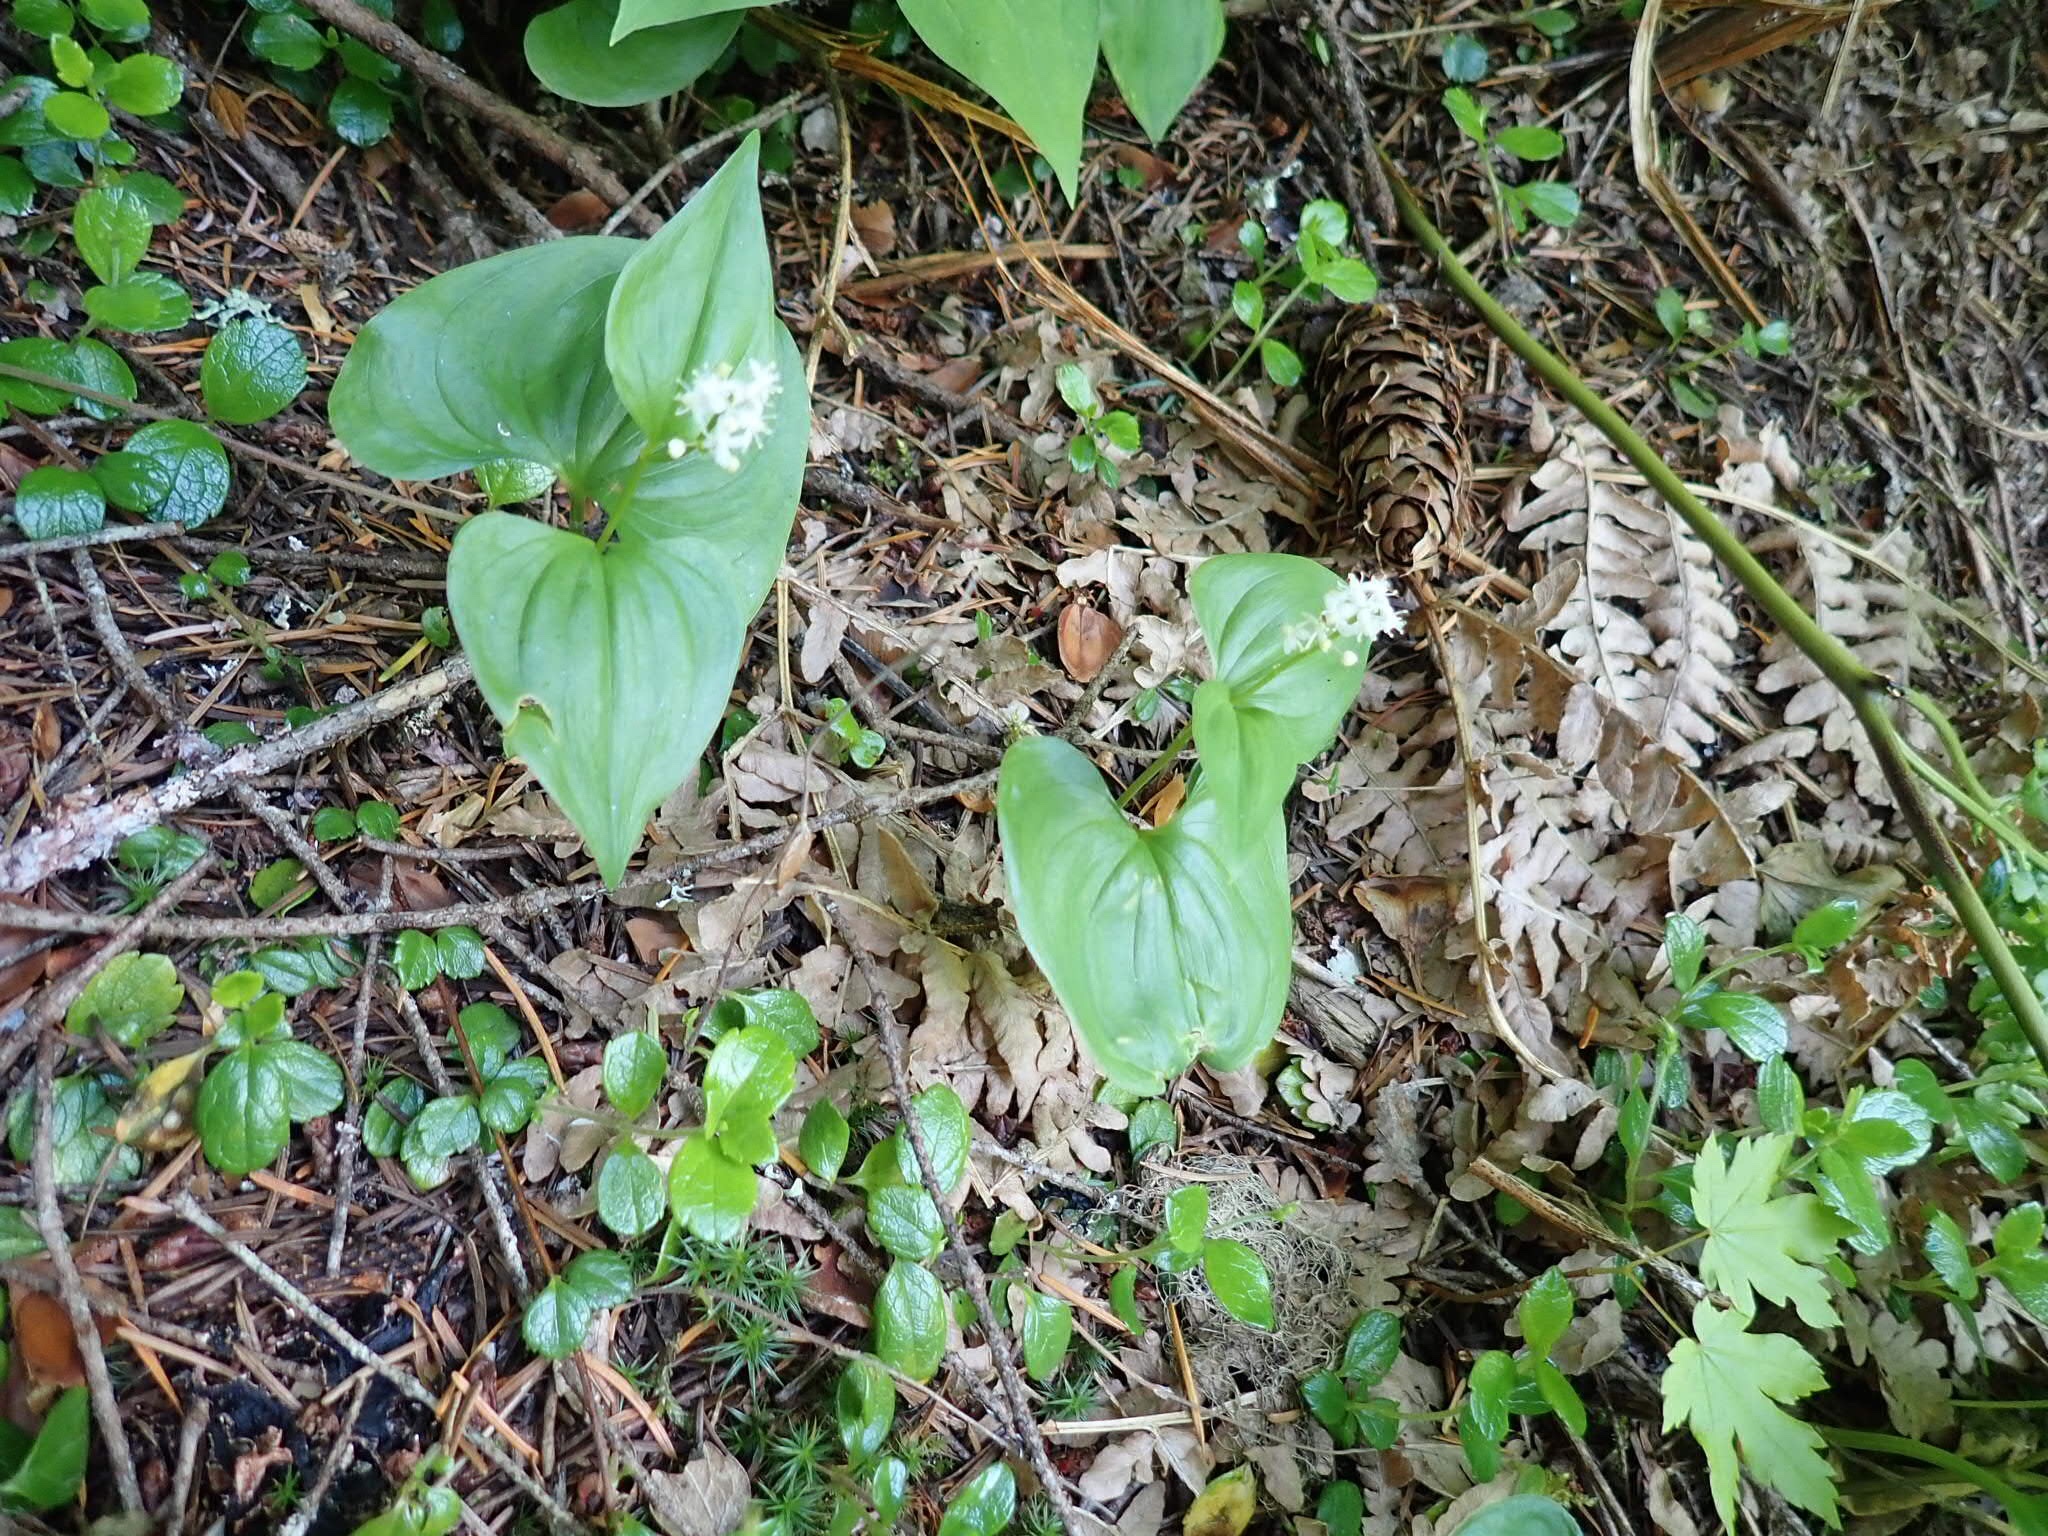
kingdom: Plantae
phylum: Tracheophyta
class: Liliopsida
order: Asparagales
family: Asparagaceae
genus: Maianthemum
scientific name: Maianthemum dilatatum
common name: False lily-of-the-valley
